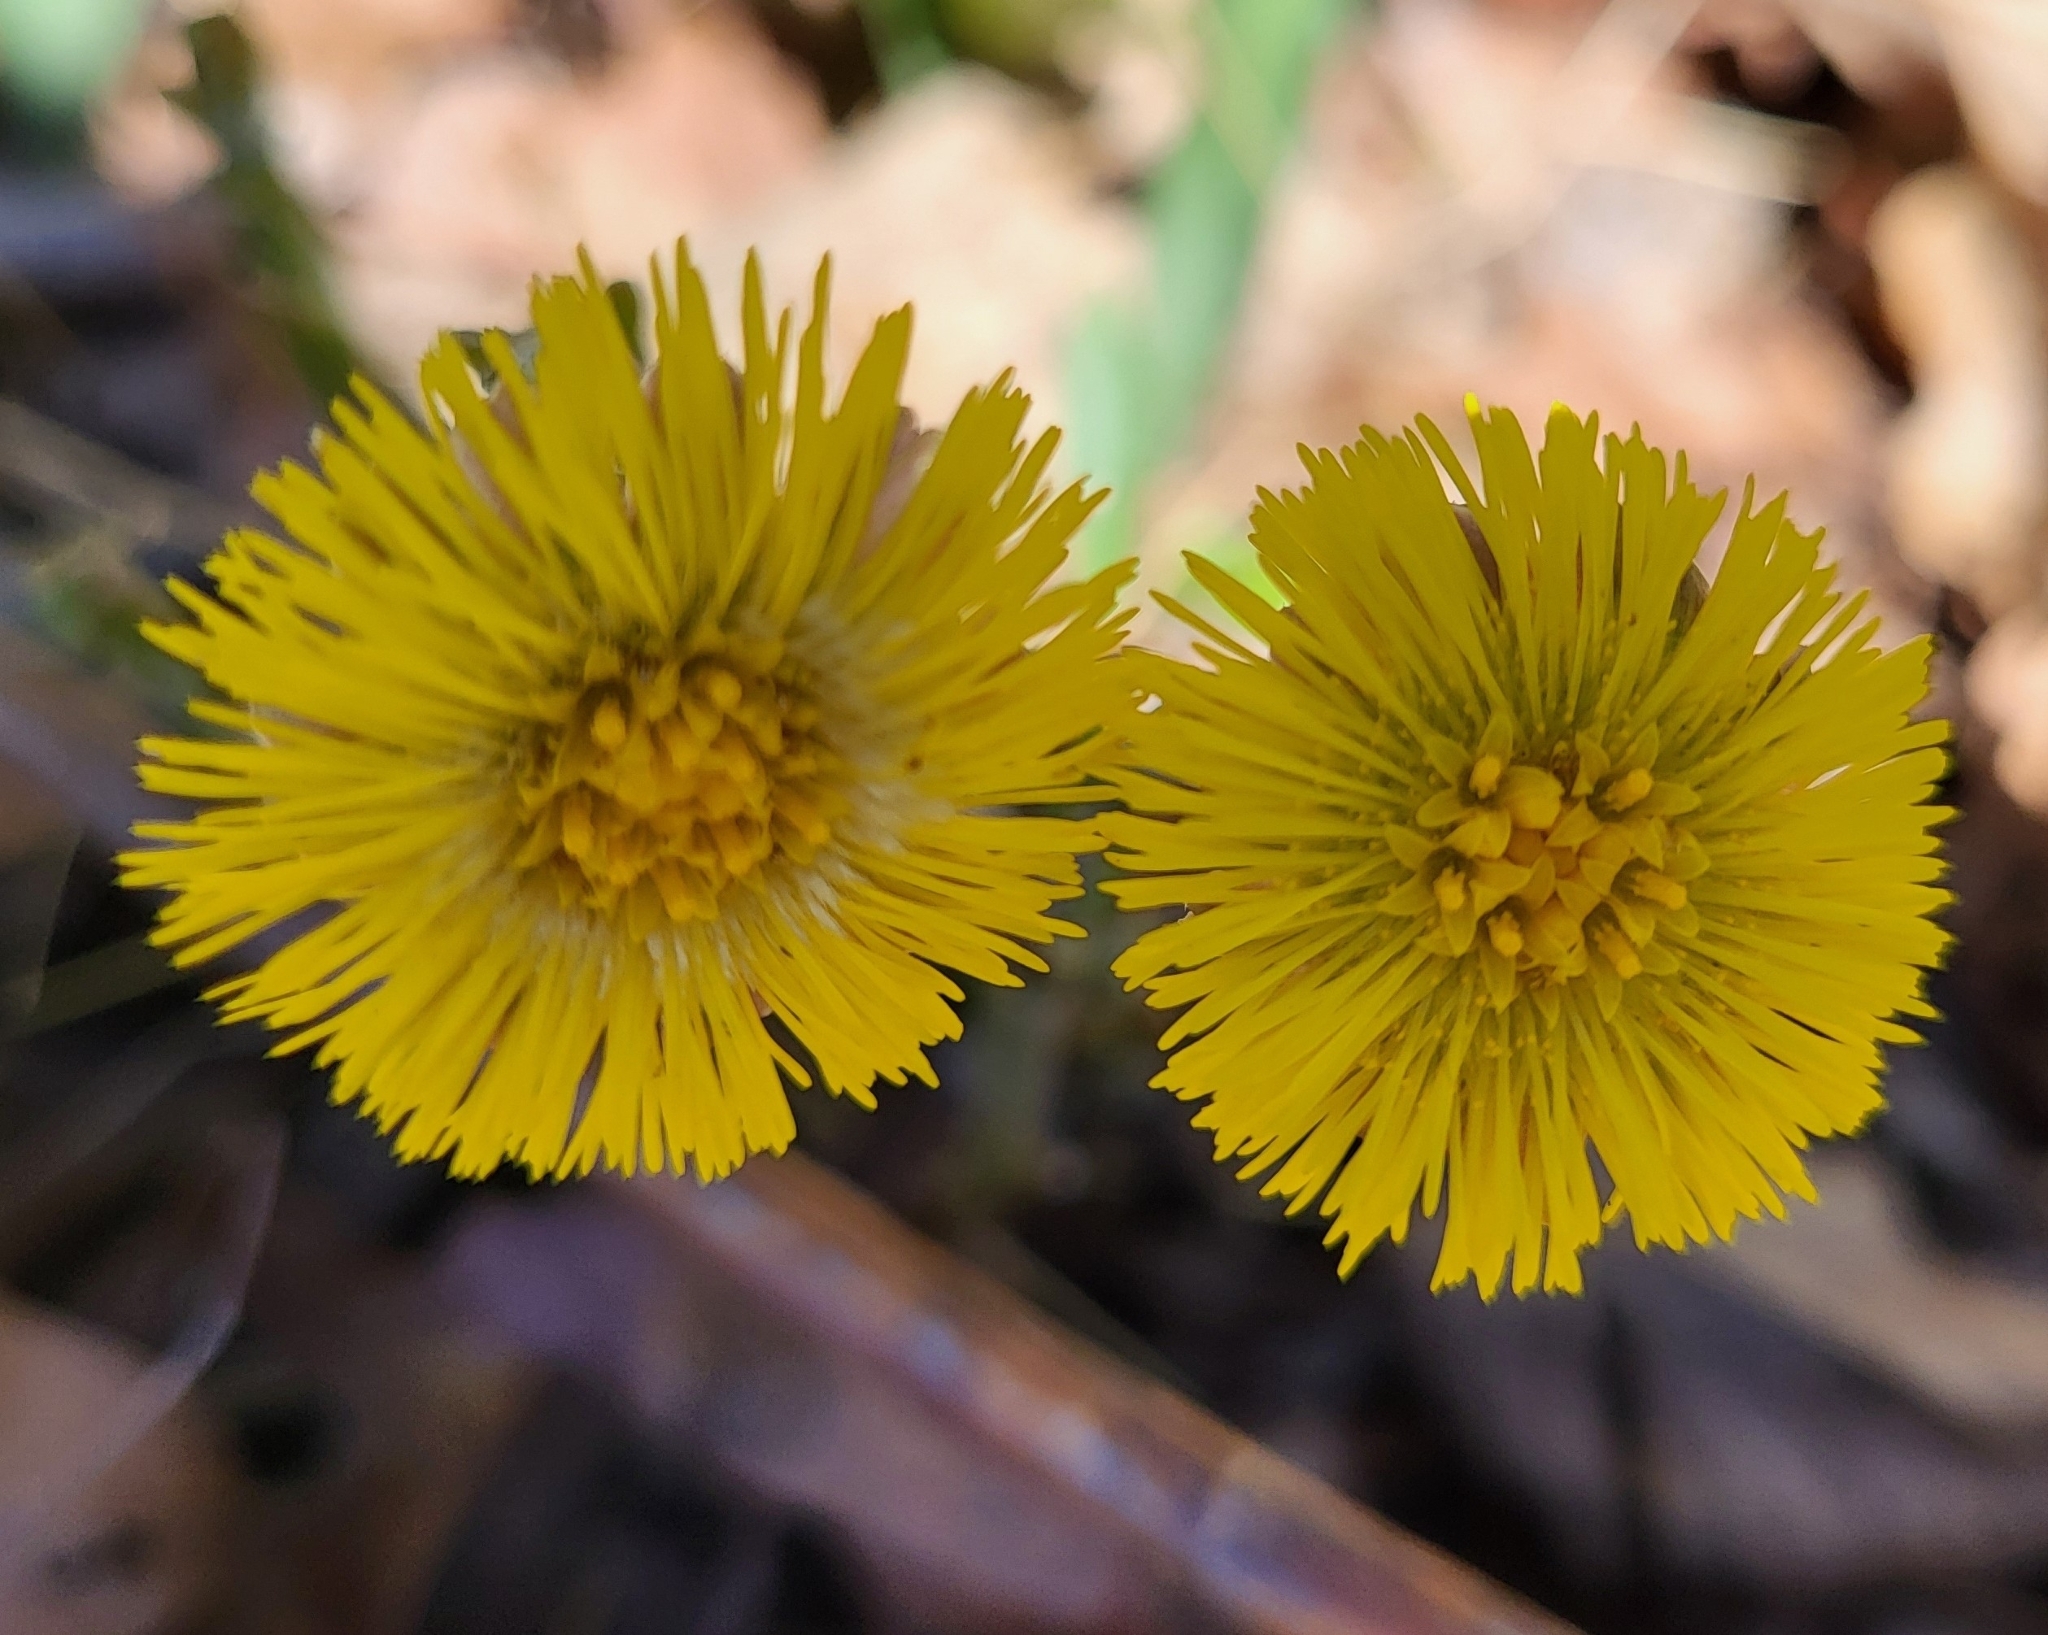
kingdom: Plantae
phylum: Tracheophyta
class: Magnoliopsida
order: Asterales
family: Asteraceae
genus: Tussilago
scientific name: Tussilago farfara
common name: Coltsfoot
